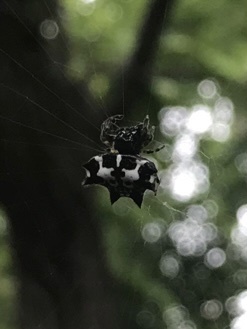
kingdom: Animalia
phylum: Arthropoda
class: Arachnida
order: Araneae
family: Araneidae
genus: Gasteracantha
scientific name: Gasteracantha kuhli
